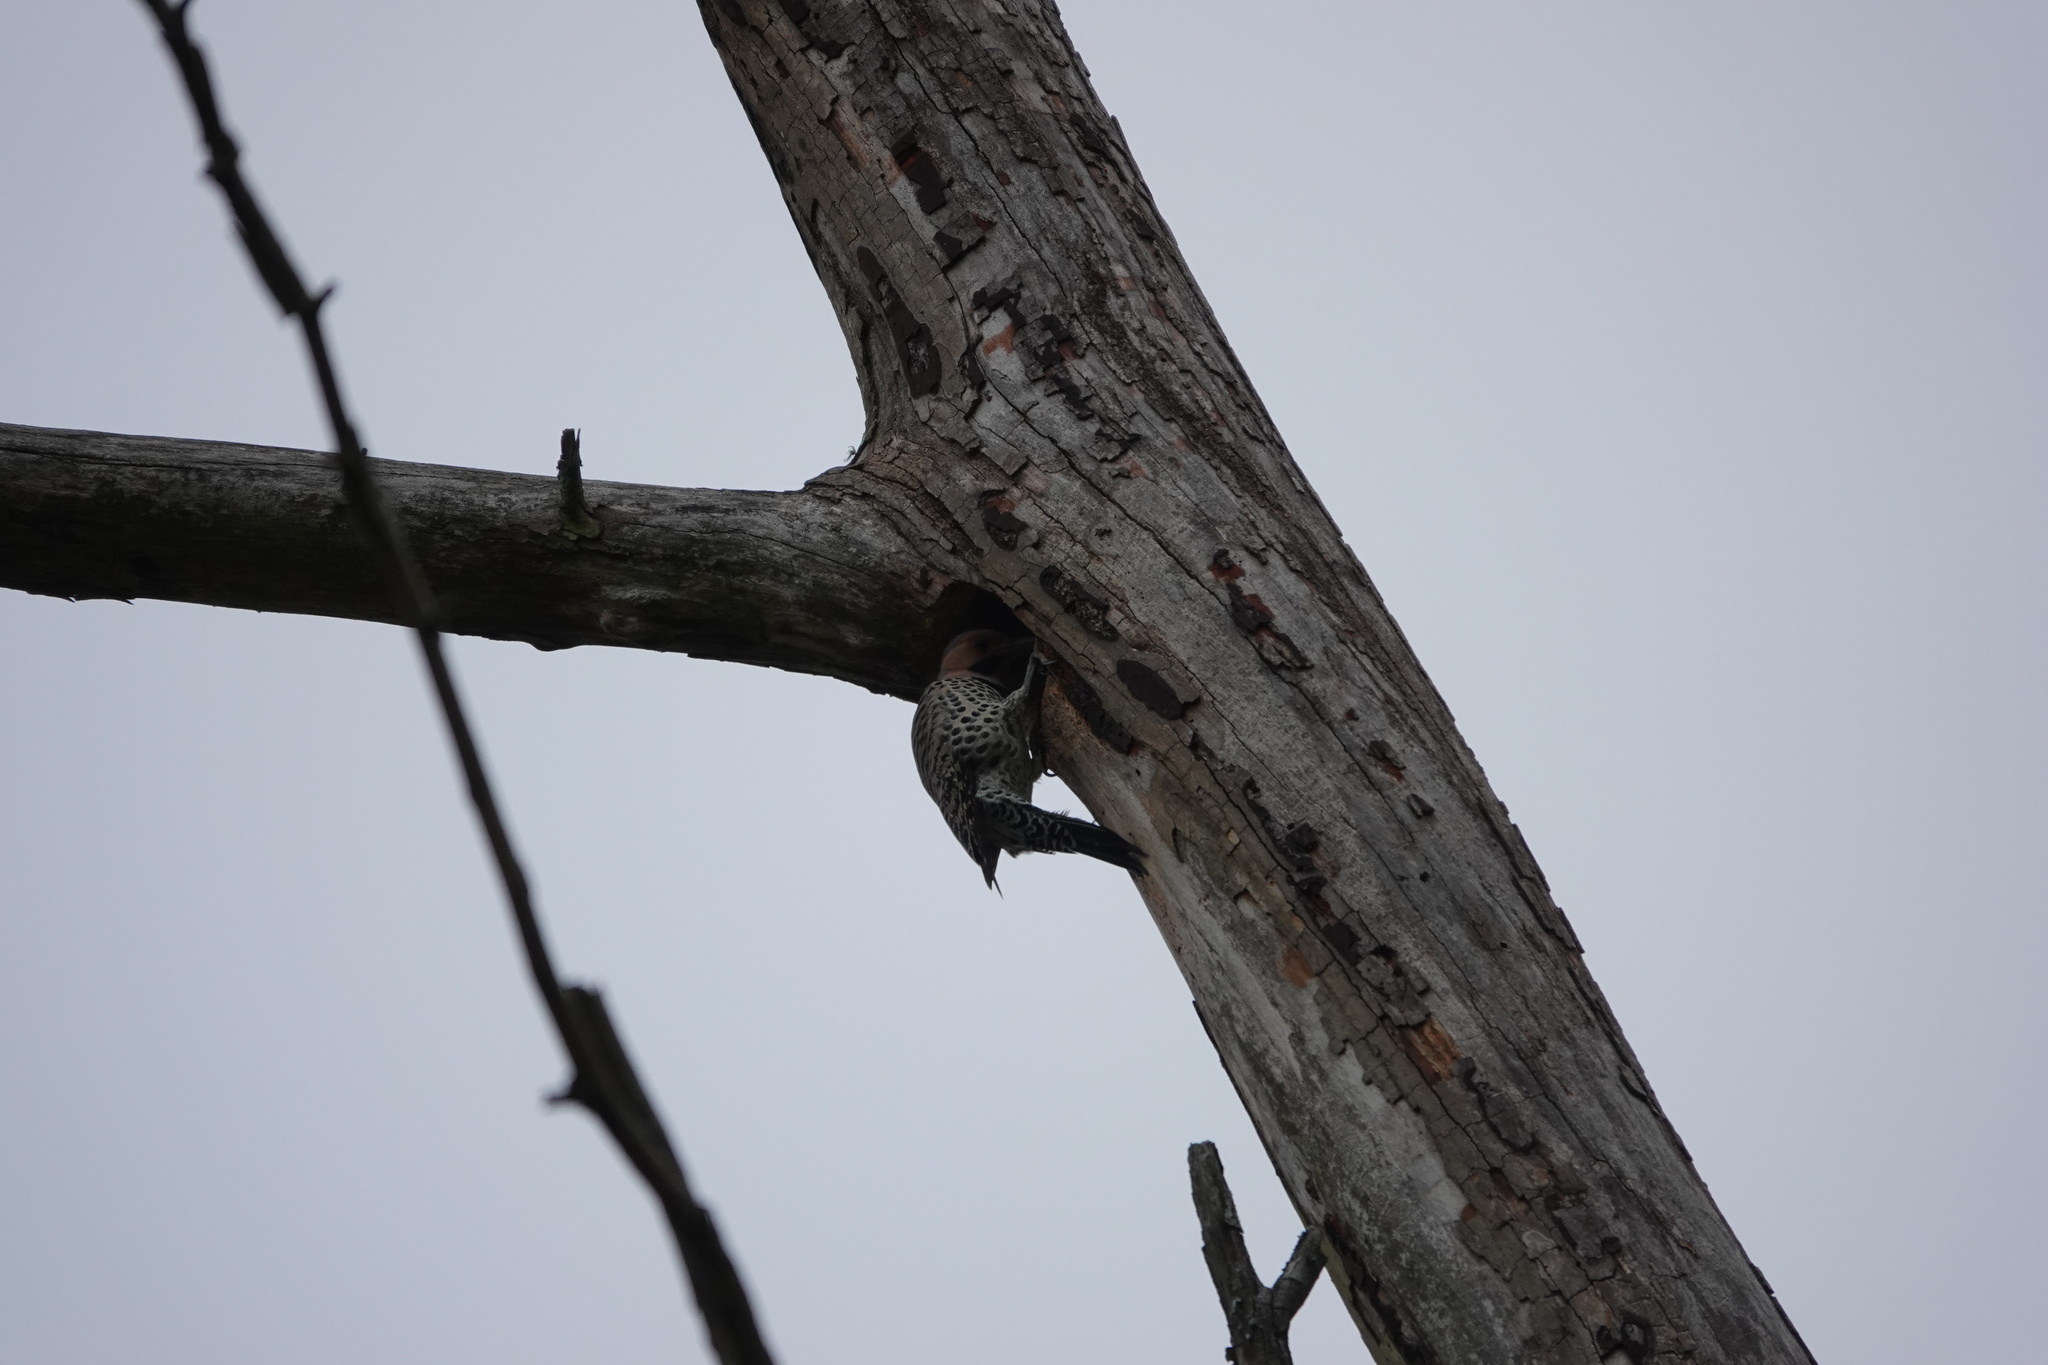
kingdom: Animalia
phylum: Chordata
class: Aves
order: Piciformes
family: Picidae
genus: Colaptes
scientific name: Colaptes auratus
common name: Northern flicker
